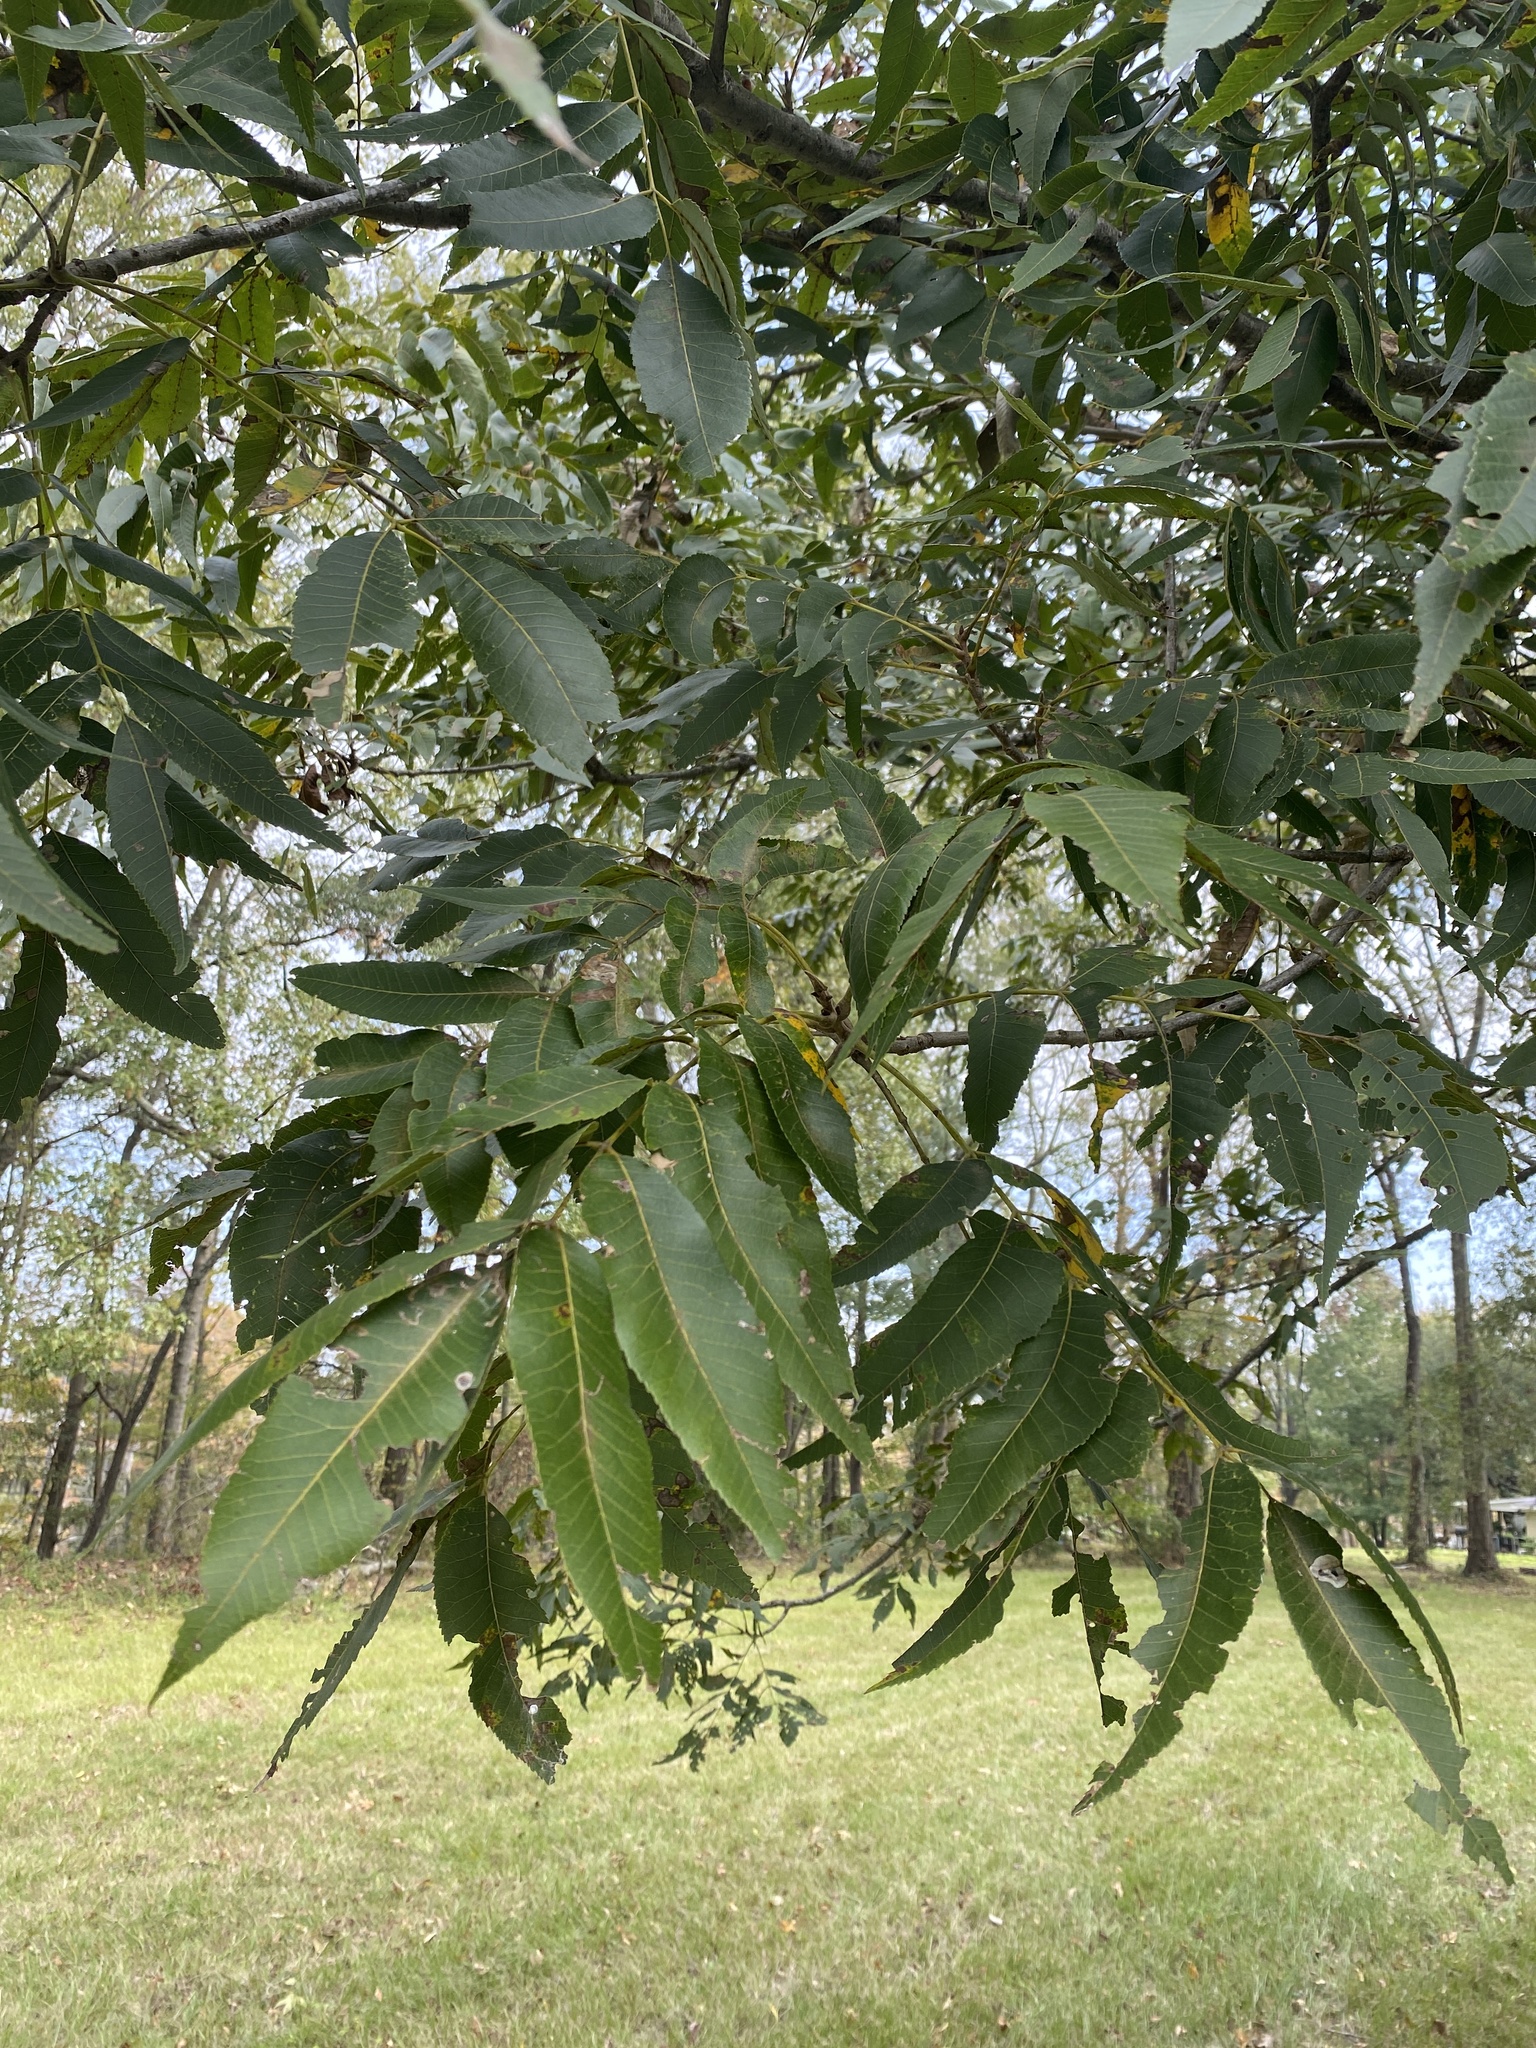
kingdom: Plantae
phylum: Tracheophyta
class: Magnoliopsida
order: Fagales
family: Juglandaceae
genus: Carya
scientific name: Carya illinoinensis
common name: Pecan
